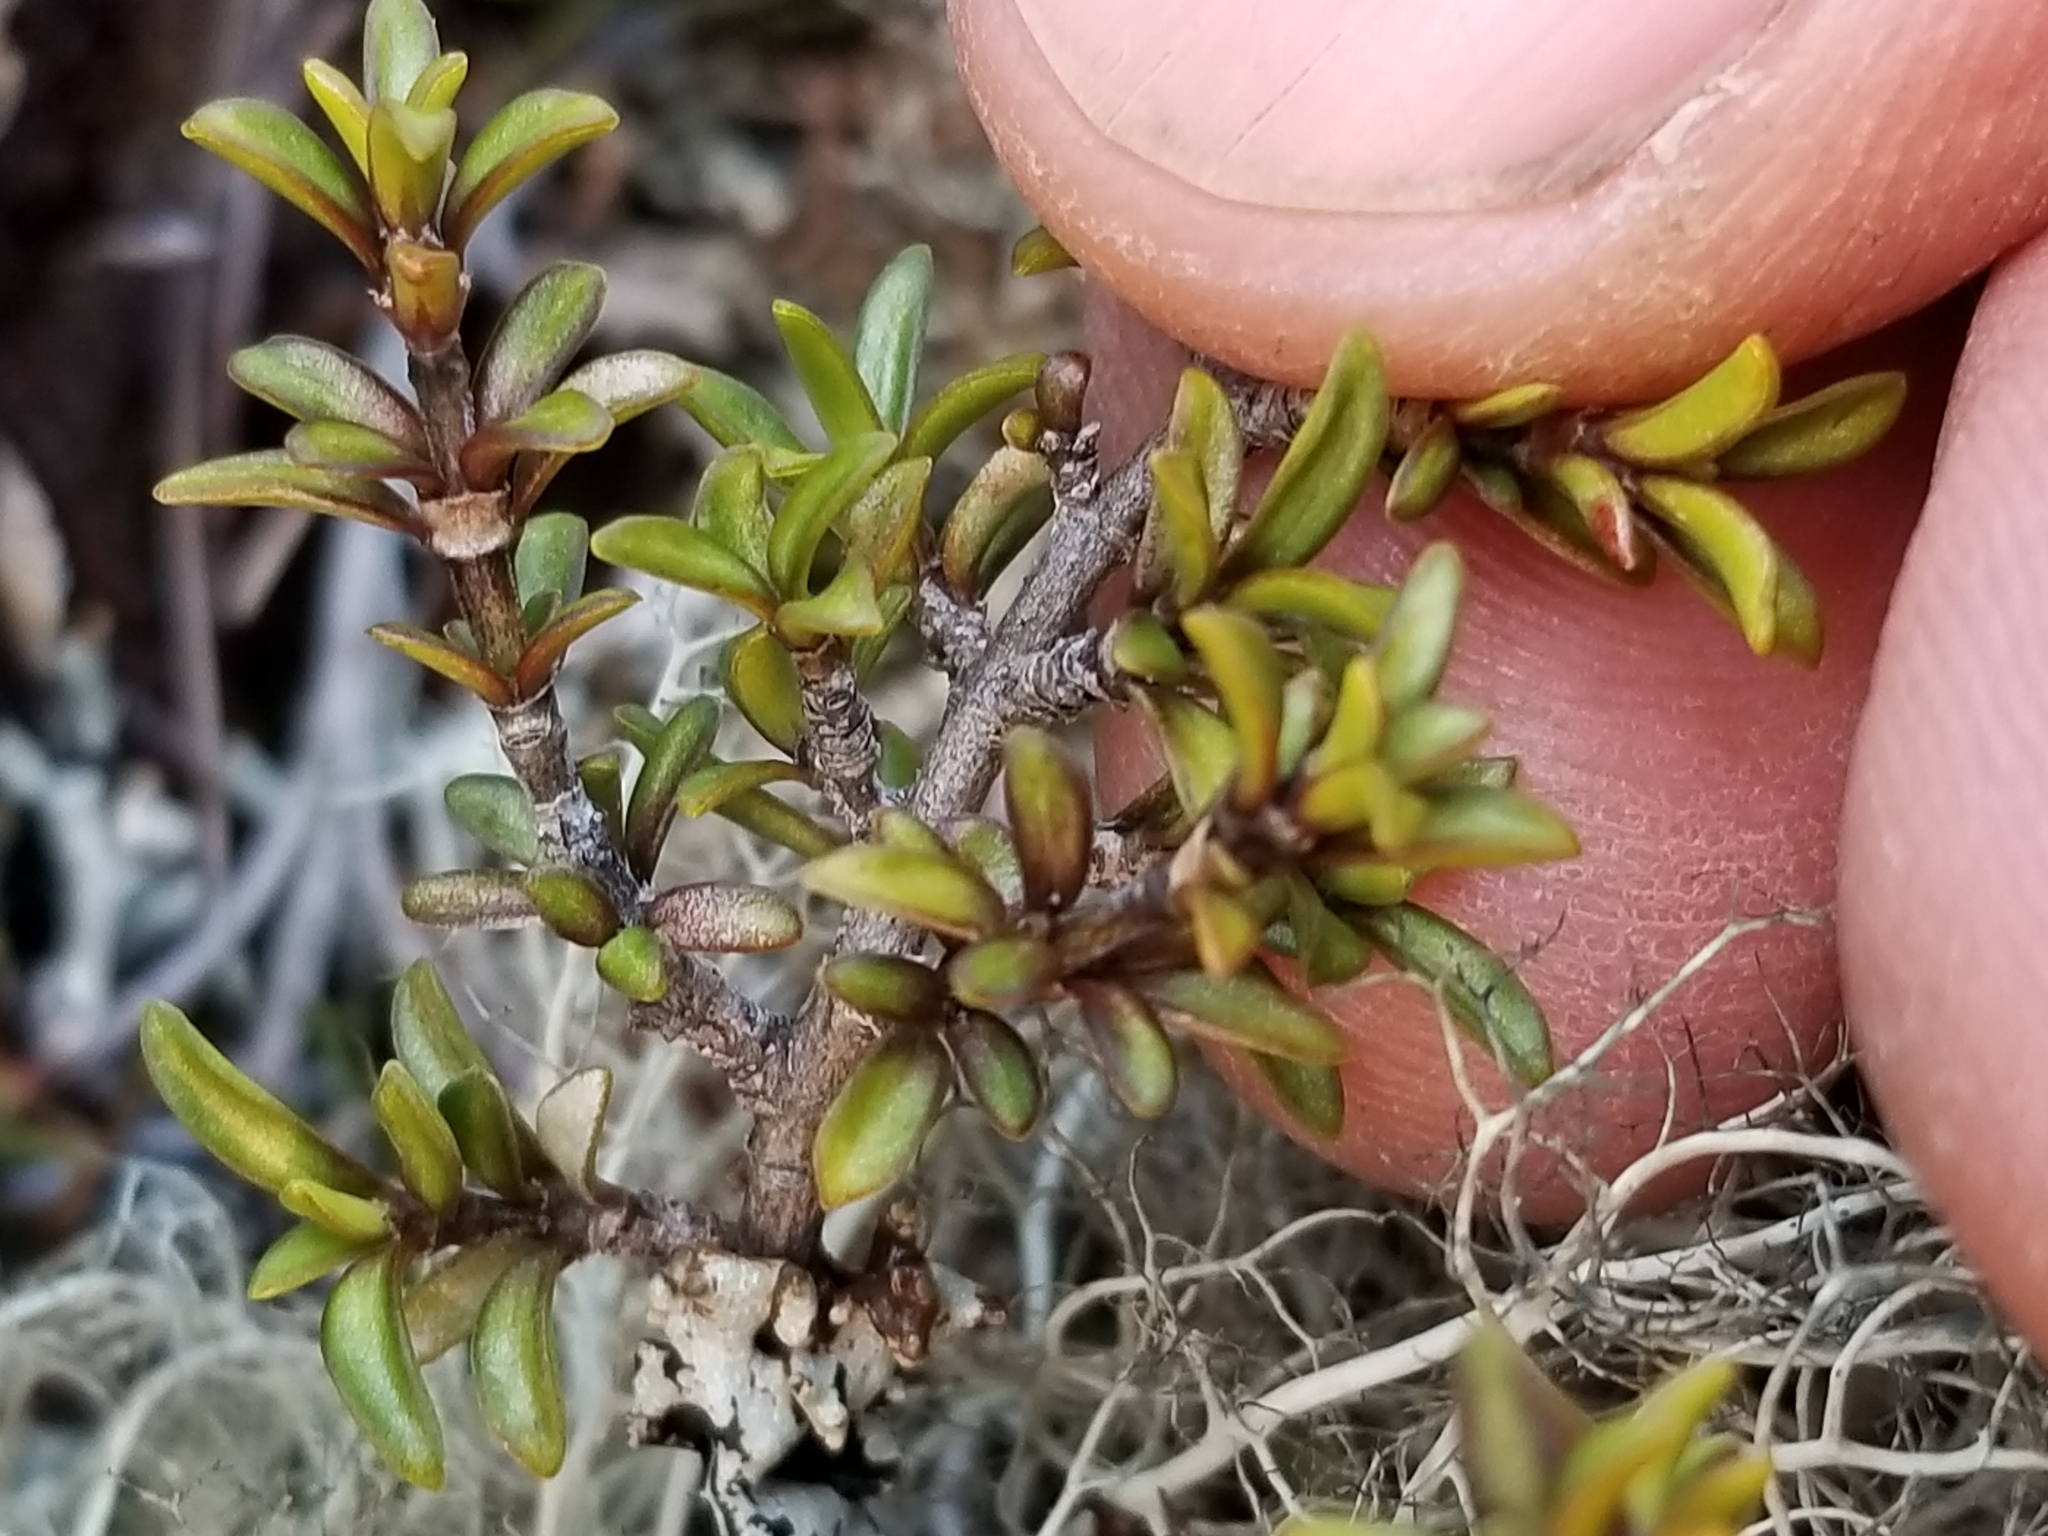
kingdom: Plantae
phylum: Tracheophyta
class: Magnoliopsida
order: Gentianales
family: Rubiaceae
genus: Coprosma
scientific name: Coprosma fowerakeri
